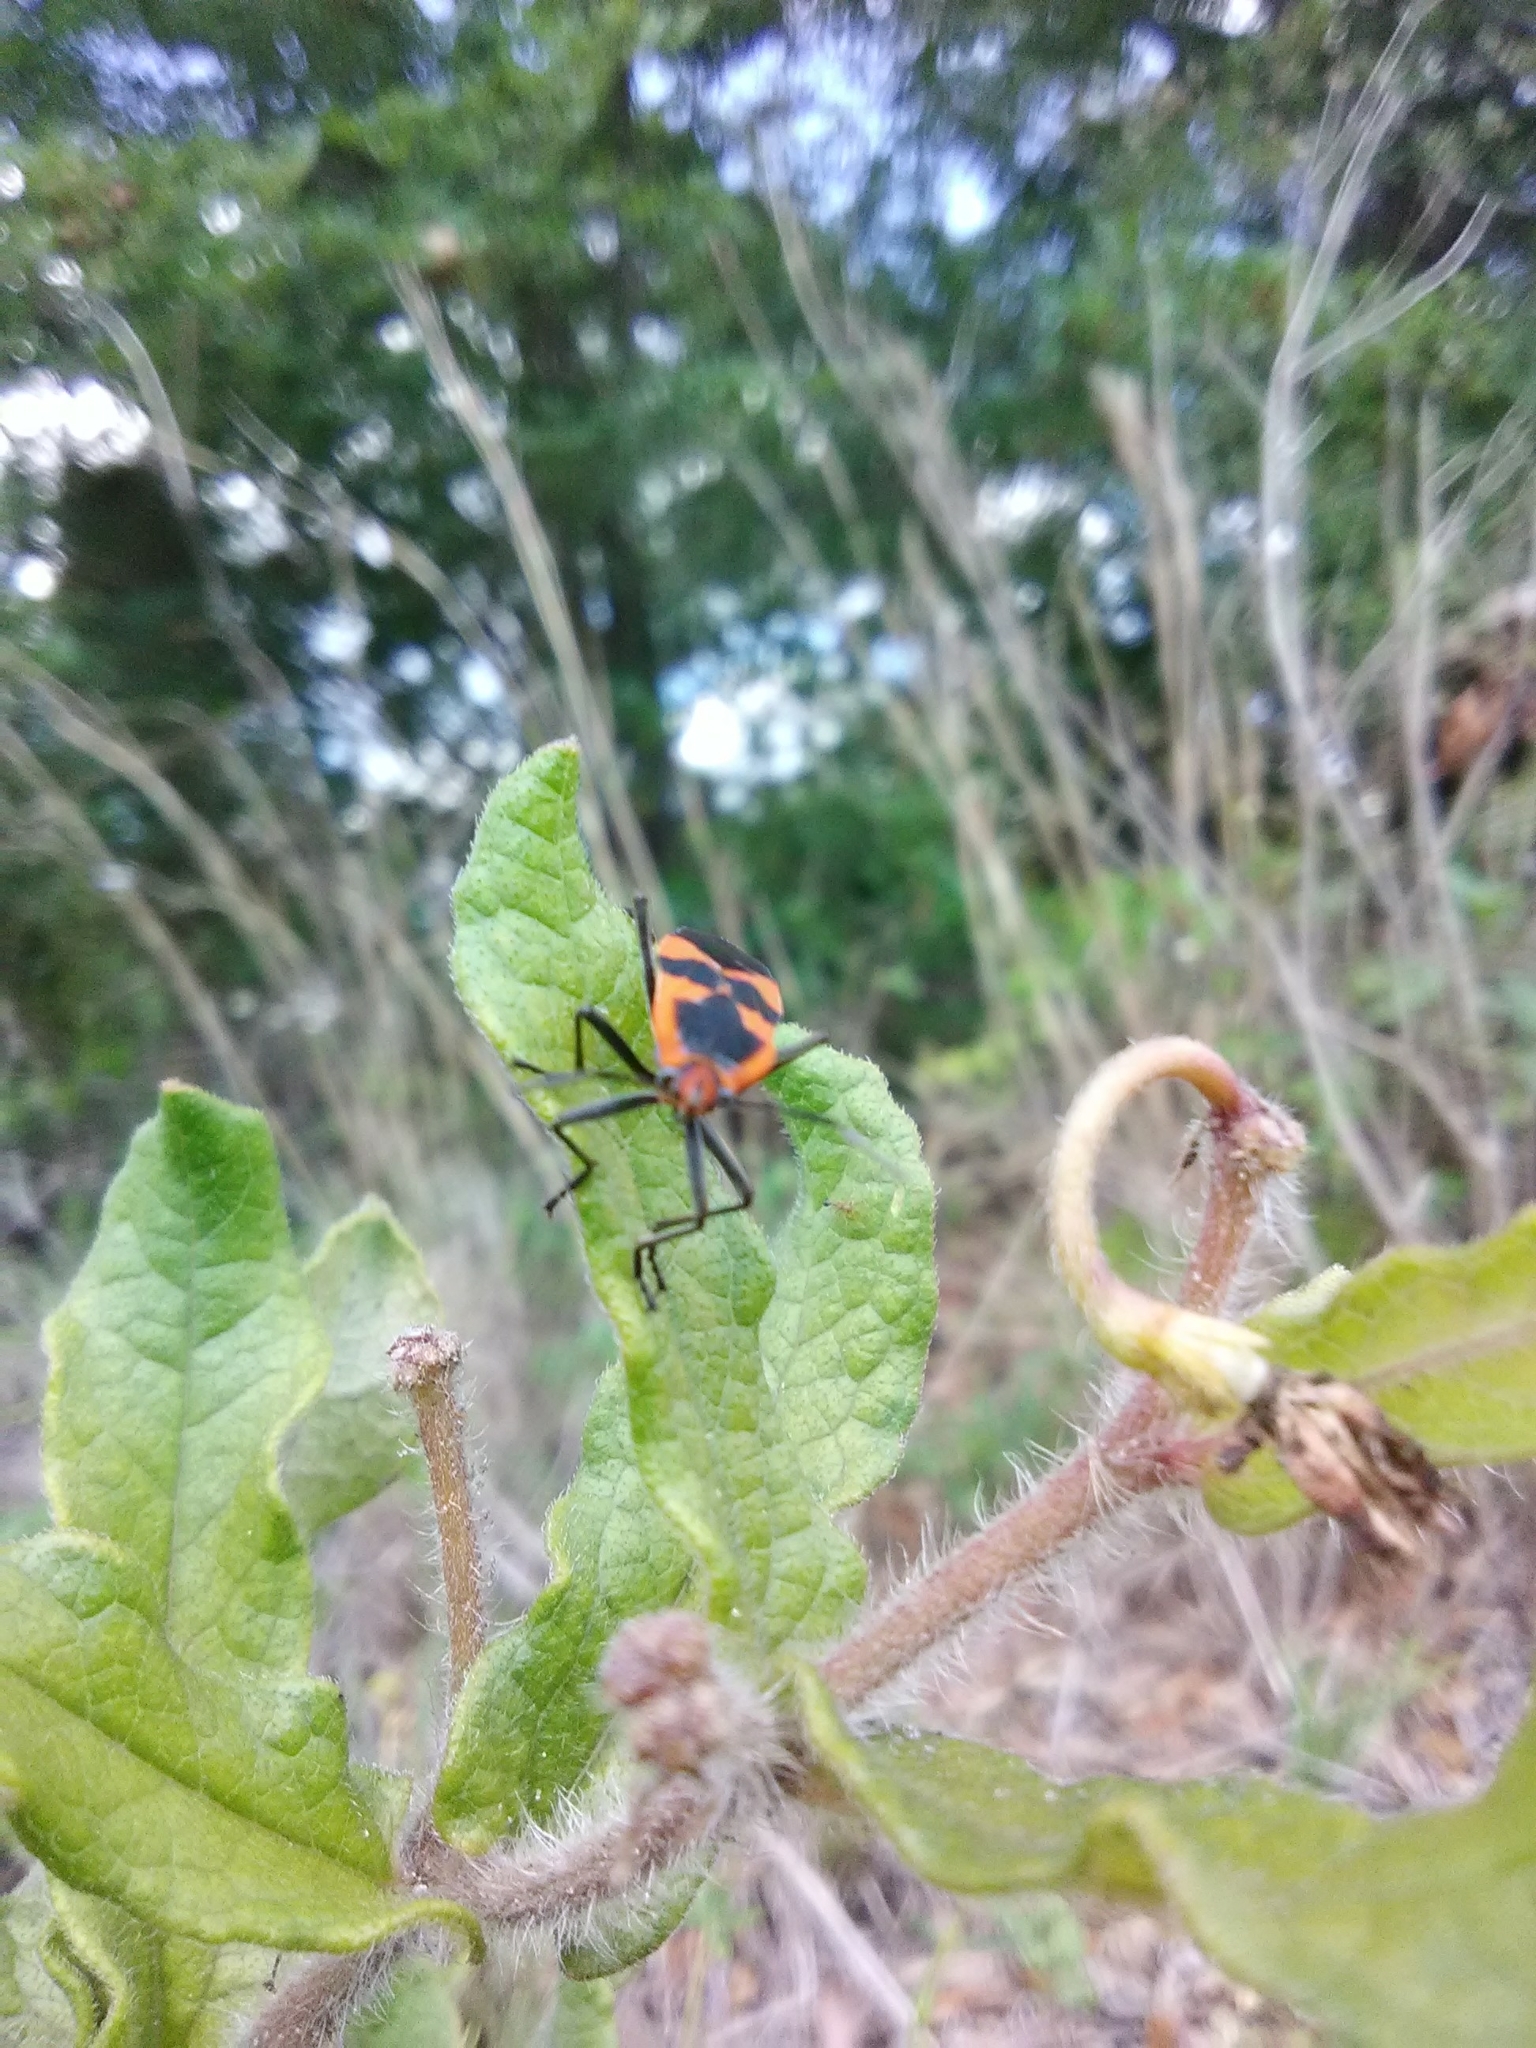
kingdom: Animalia
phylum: Arthropoda
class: Insecta
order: Hemiptera
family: Lygaeidae
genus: Oncopeltus
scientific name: Oncopeltus fasciatus
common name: Large milkweed bug
